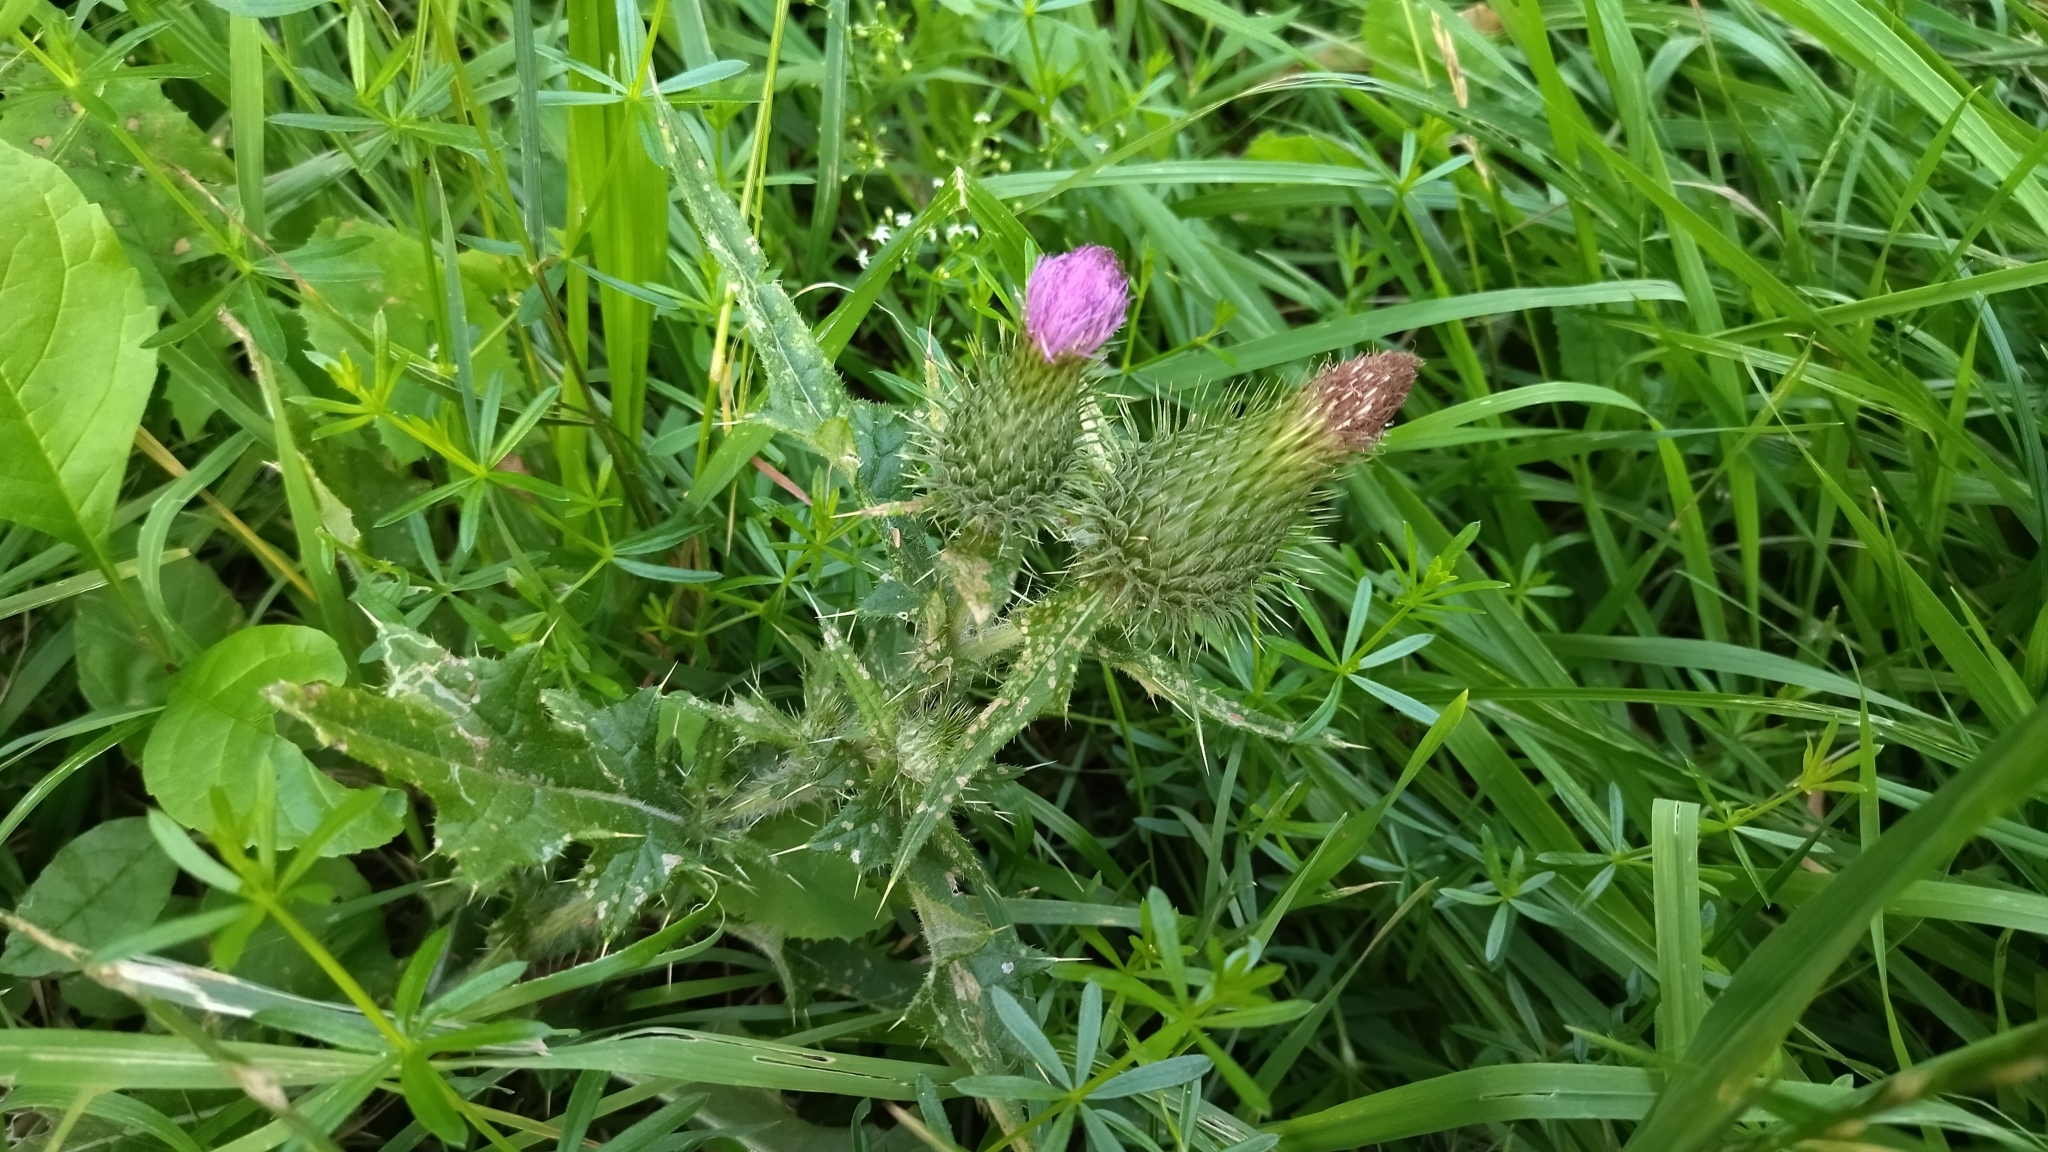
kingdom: Plantae
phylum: Tracheophyta
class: Magnoliopsida
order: Asterales
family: Asteraceae
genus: Cirsium
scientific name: Cirsium vulgare
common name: Bull thistle
